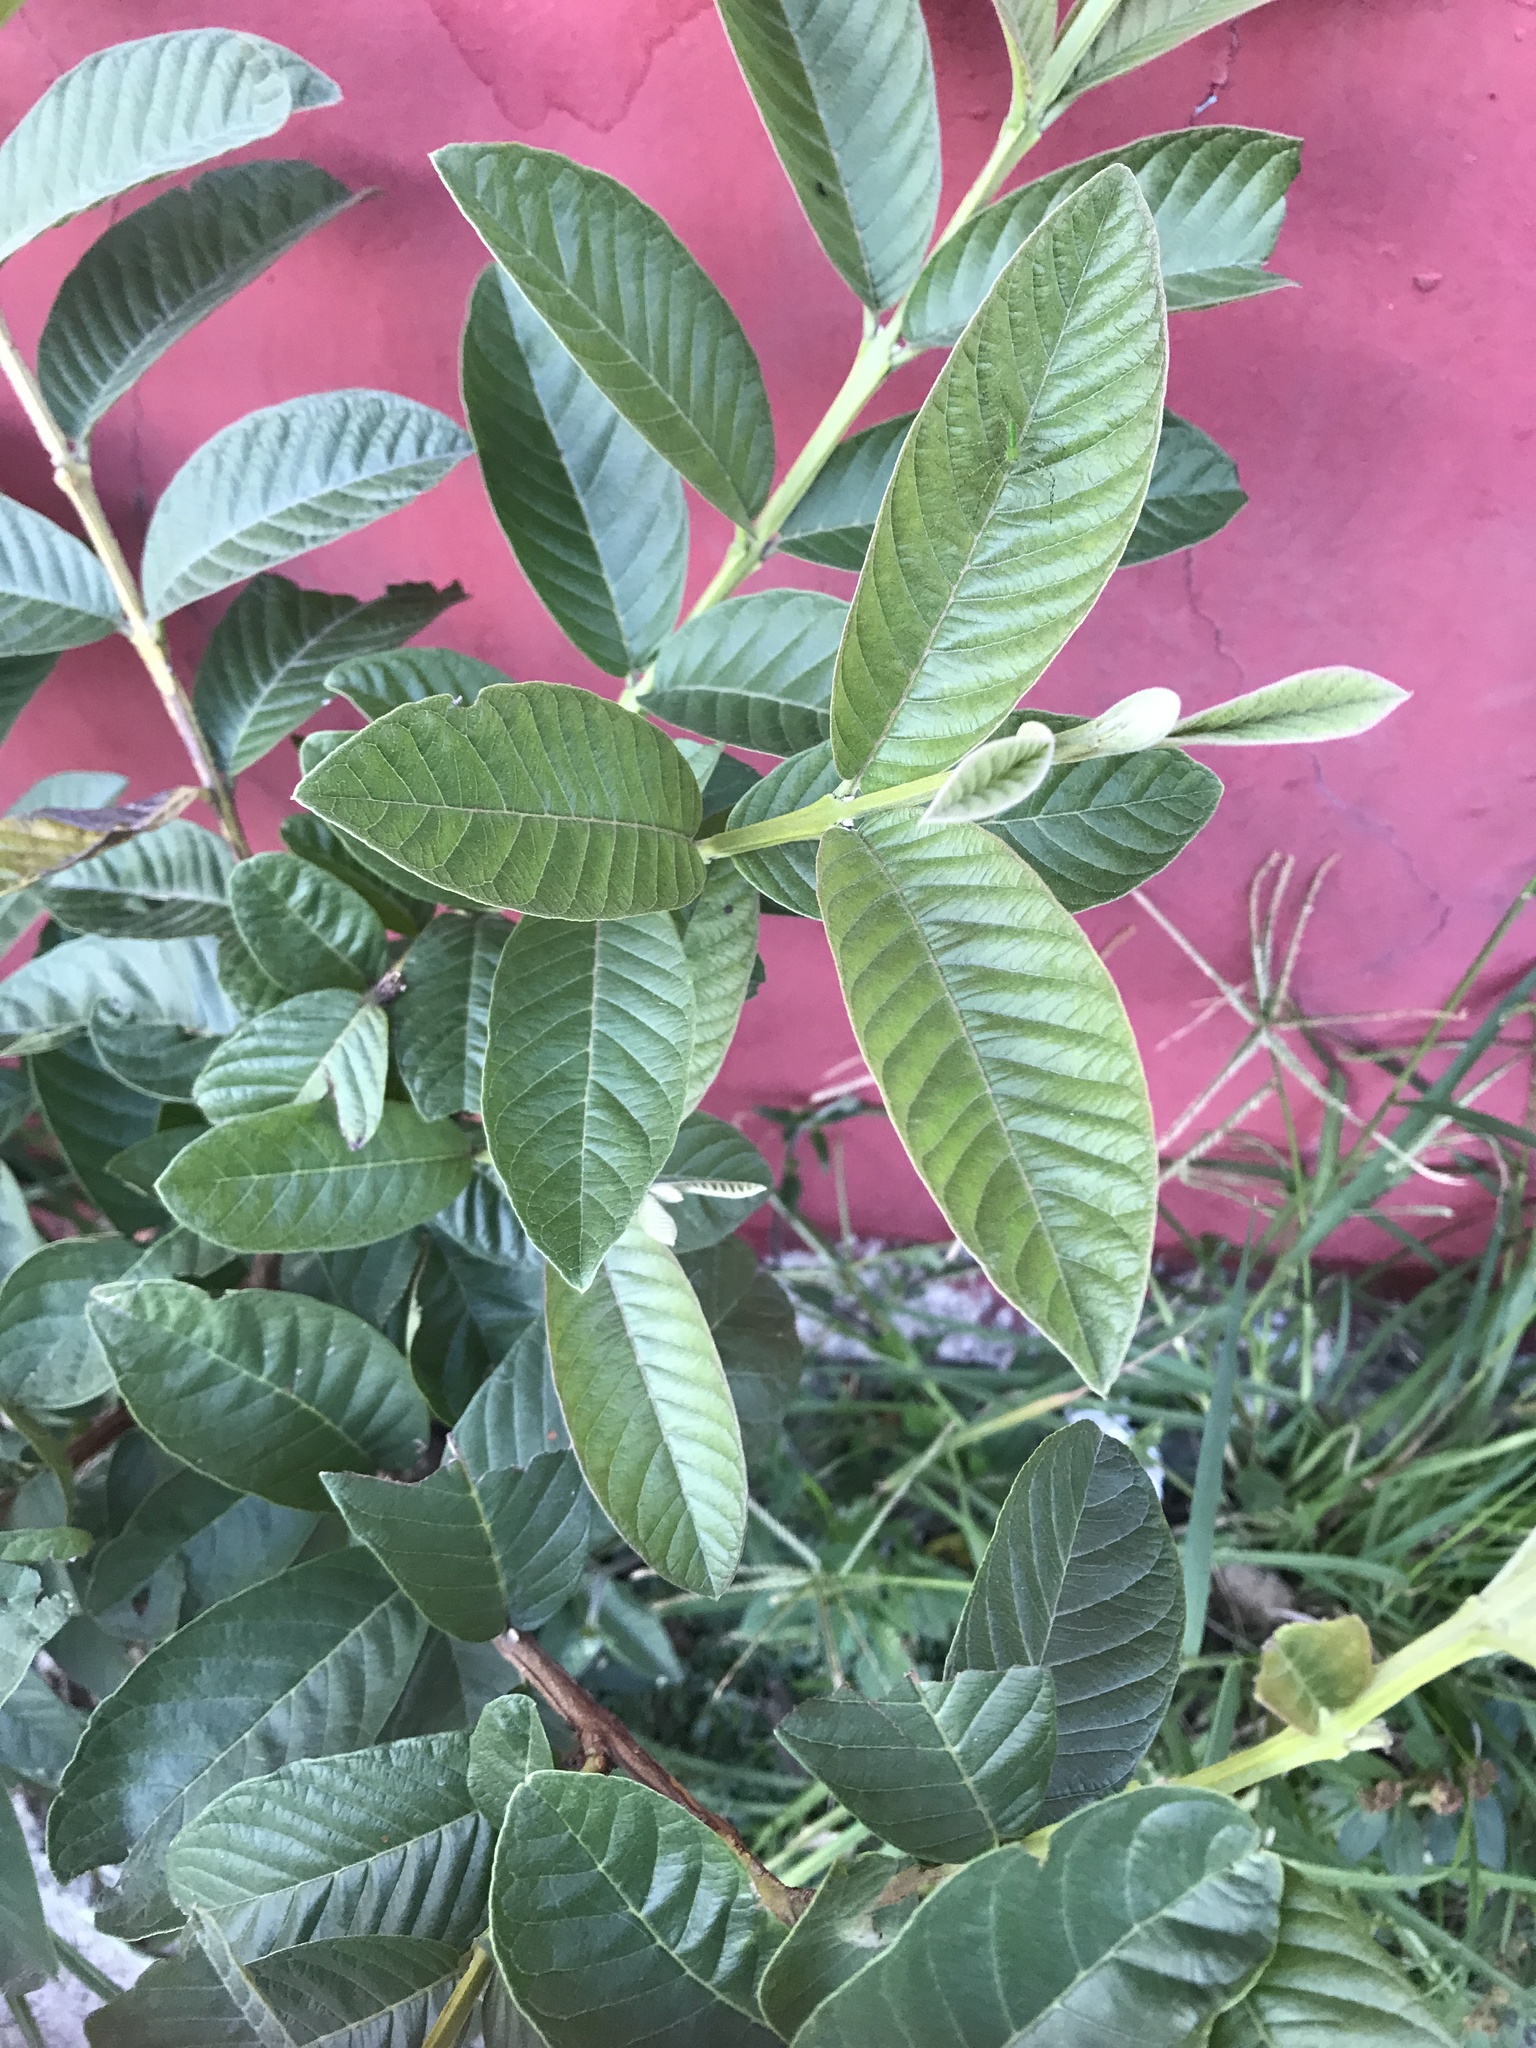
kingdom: Plantae
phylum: Tracheophyta
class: Magnoliopsida
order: Myrtales
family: Myrtaceae
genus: Psidium
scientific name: Psidium guajava
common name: Guava
